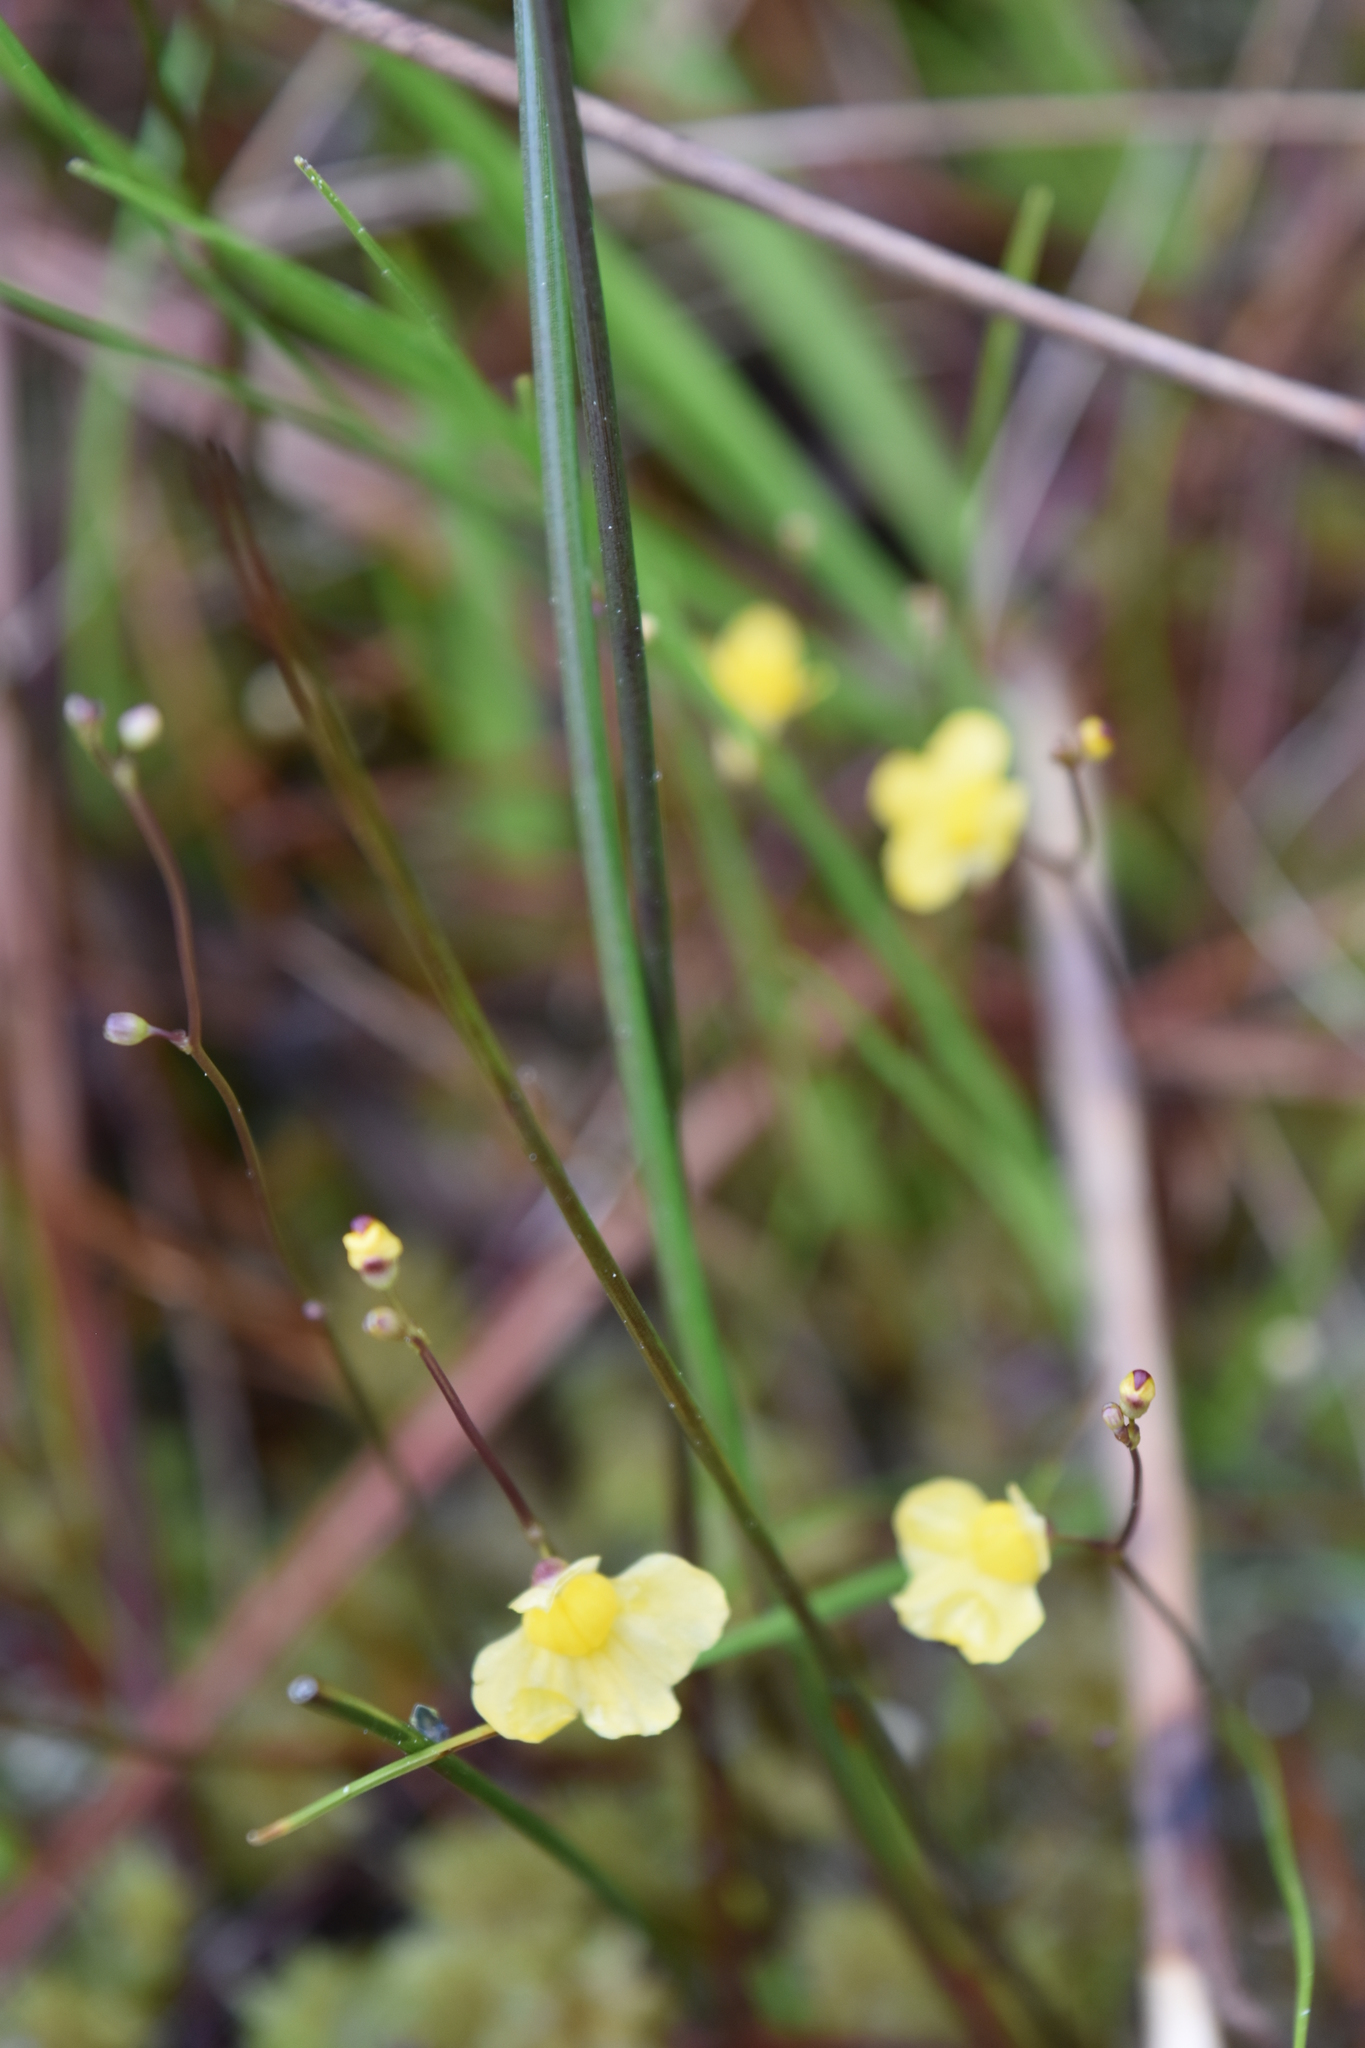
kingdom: Plantae
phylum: Tracheophyta
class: Magnoliopsida
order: Lamiales
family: Lentibulariaceae
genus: Utricularia
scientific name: Utricularia subulata
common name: Tiny bladderwort
